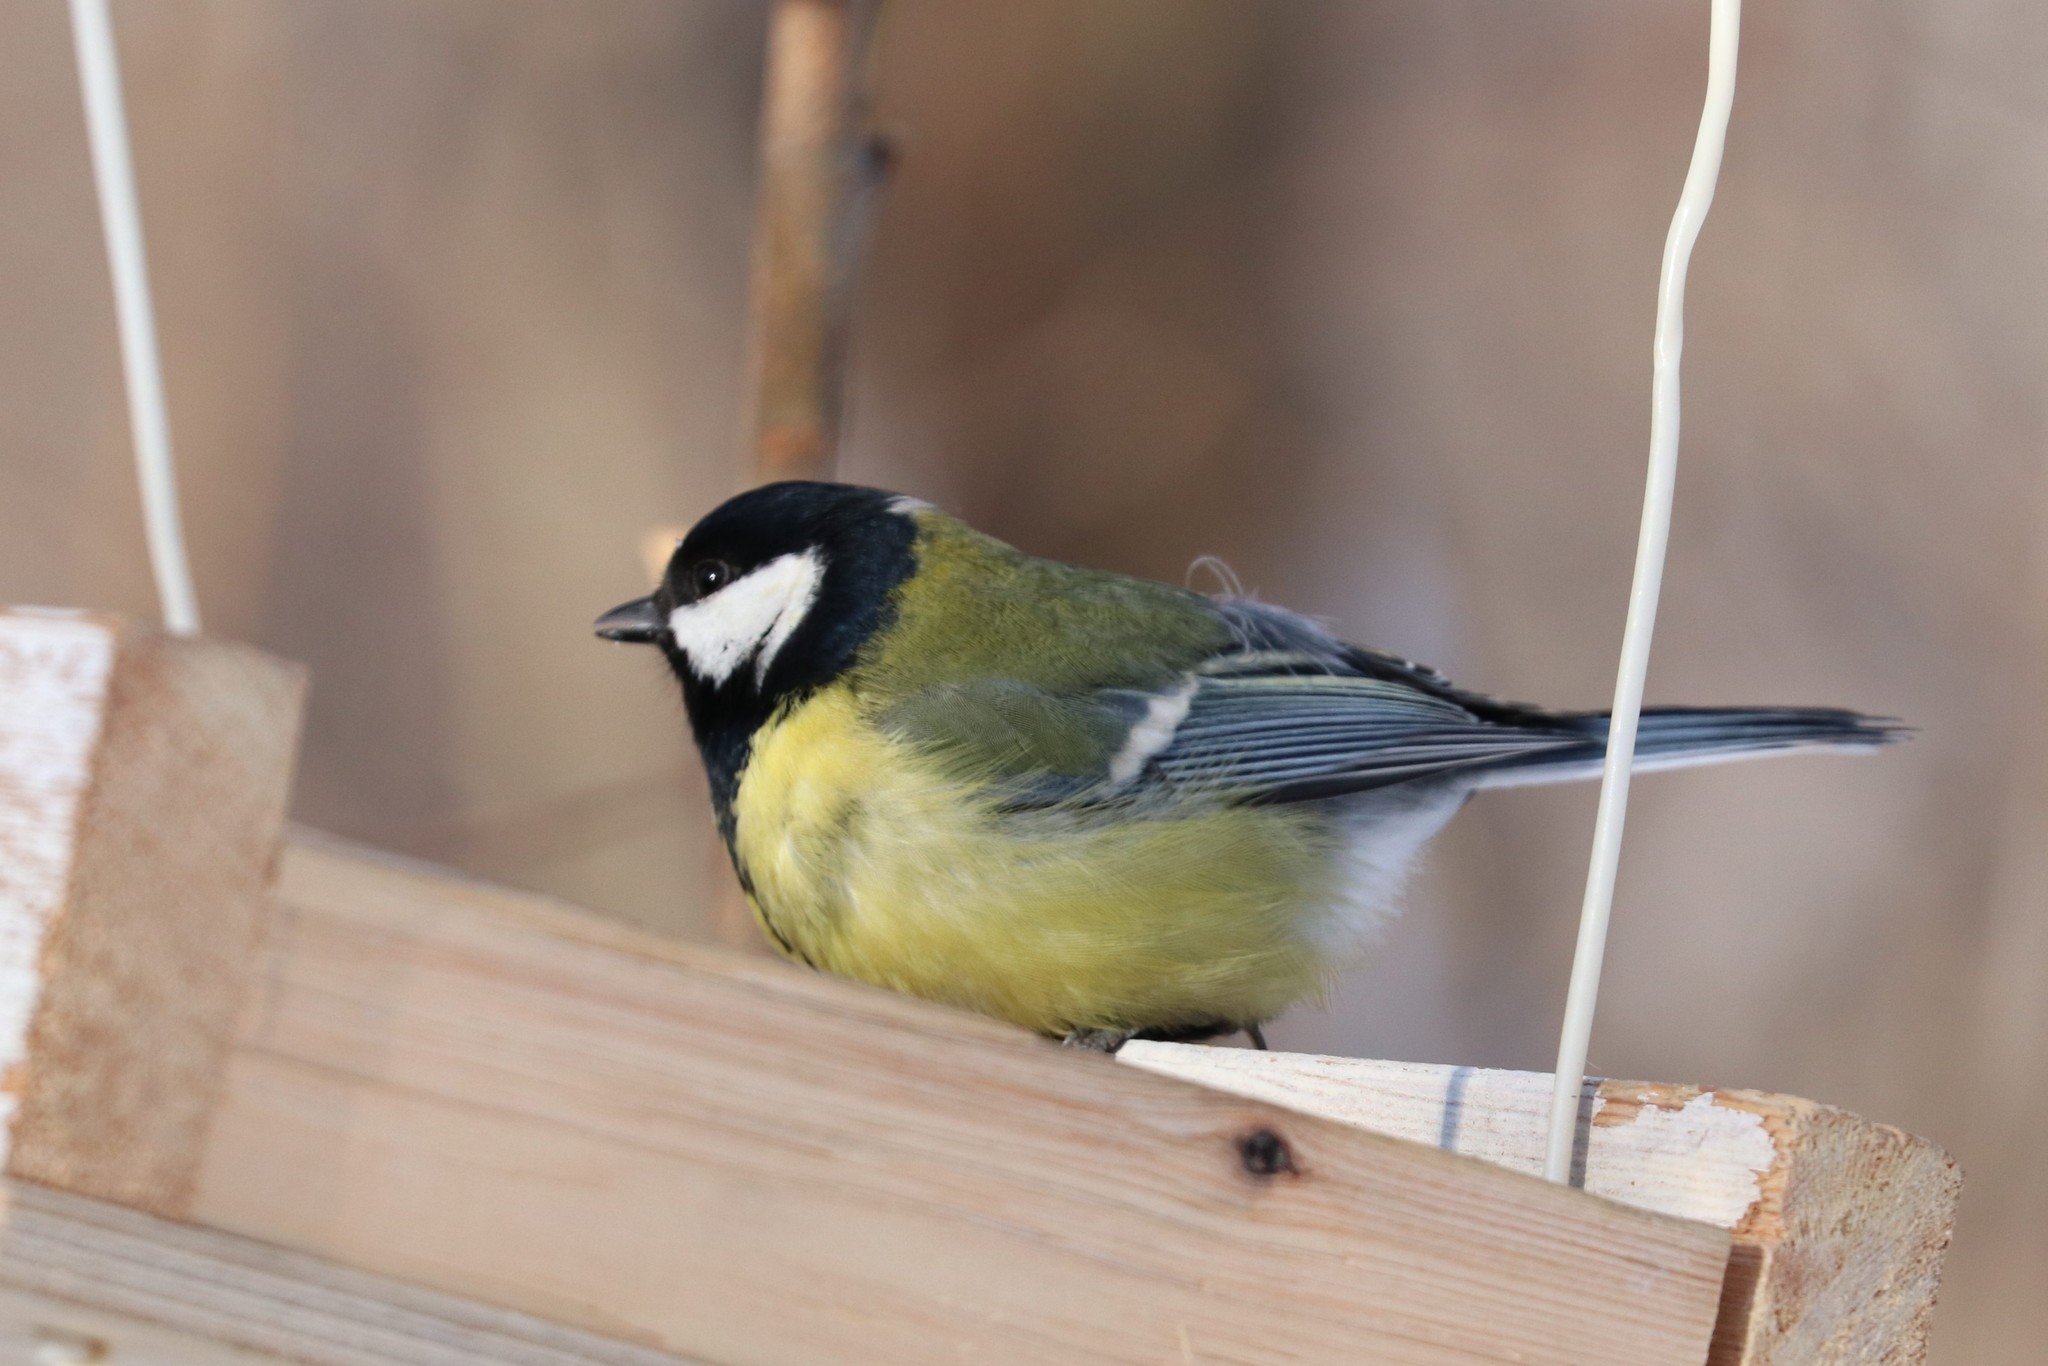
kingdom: Animalia
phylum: Chordata
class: Aves
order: Passeriformes
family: Paridae
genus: Parus
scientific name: Parus major
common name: Great tit
